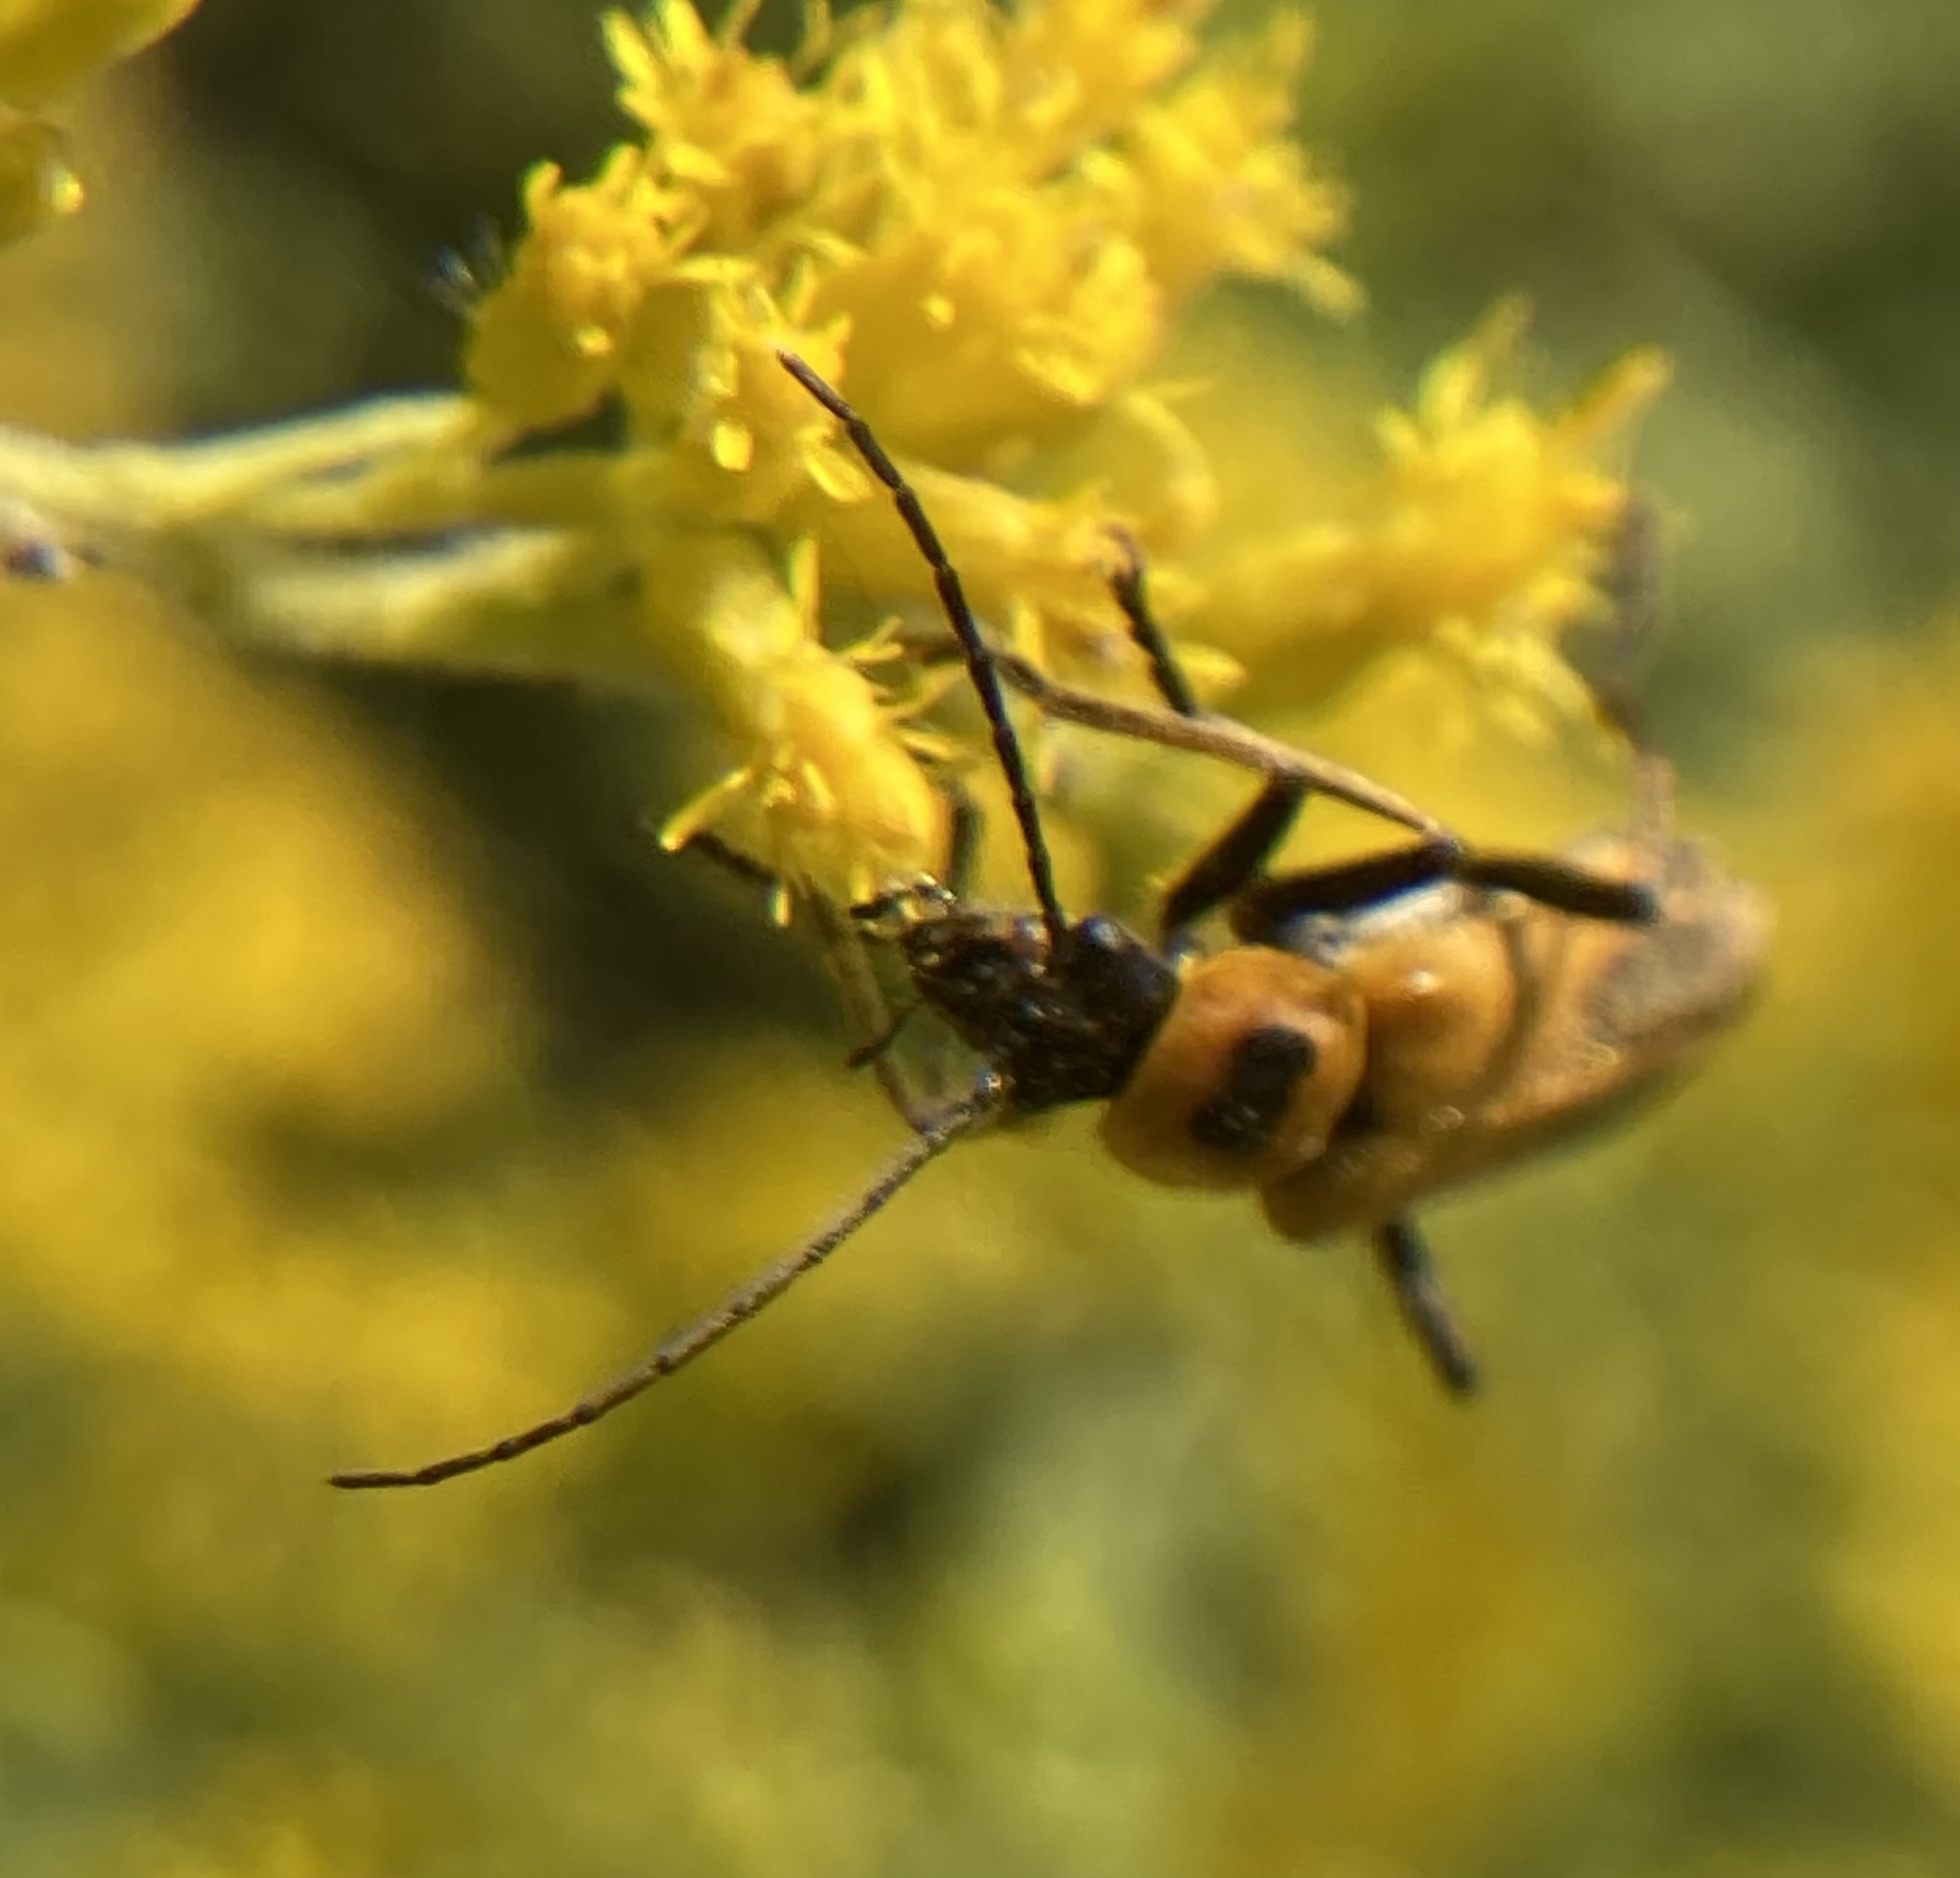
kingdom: Animalia
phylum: Arthropoda
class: Insecta
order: Coleoptera
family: Cantharidae
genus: Chauliognathus
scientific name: Chauliognathus pensylvanicus
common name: Goldenrod soldier beetle
